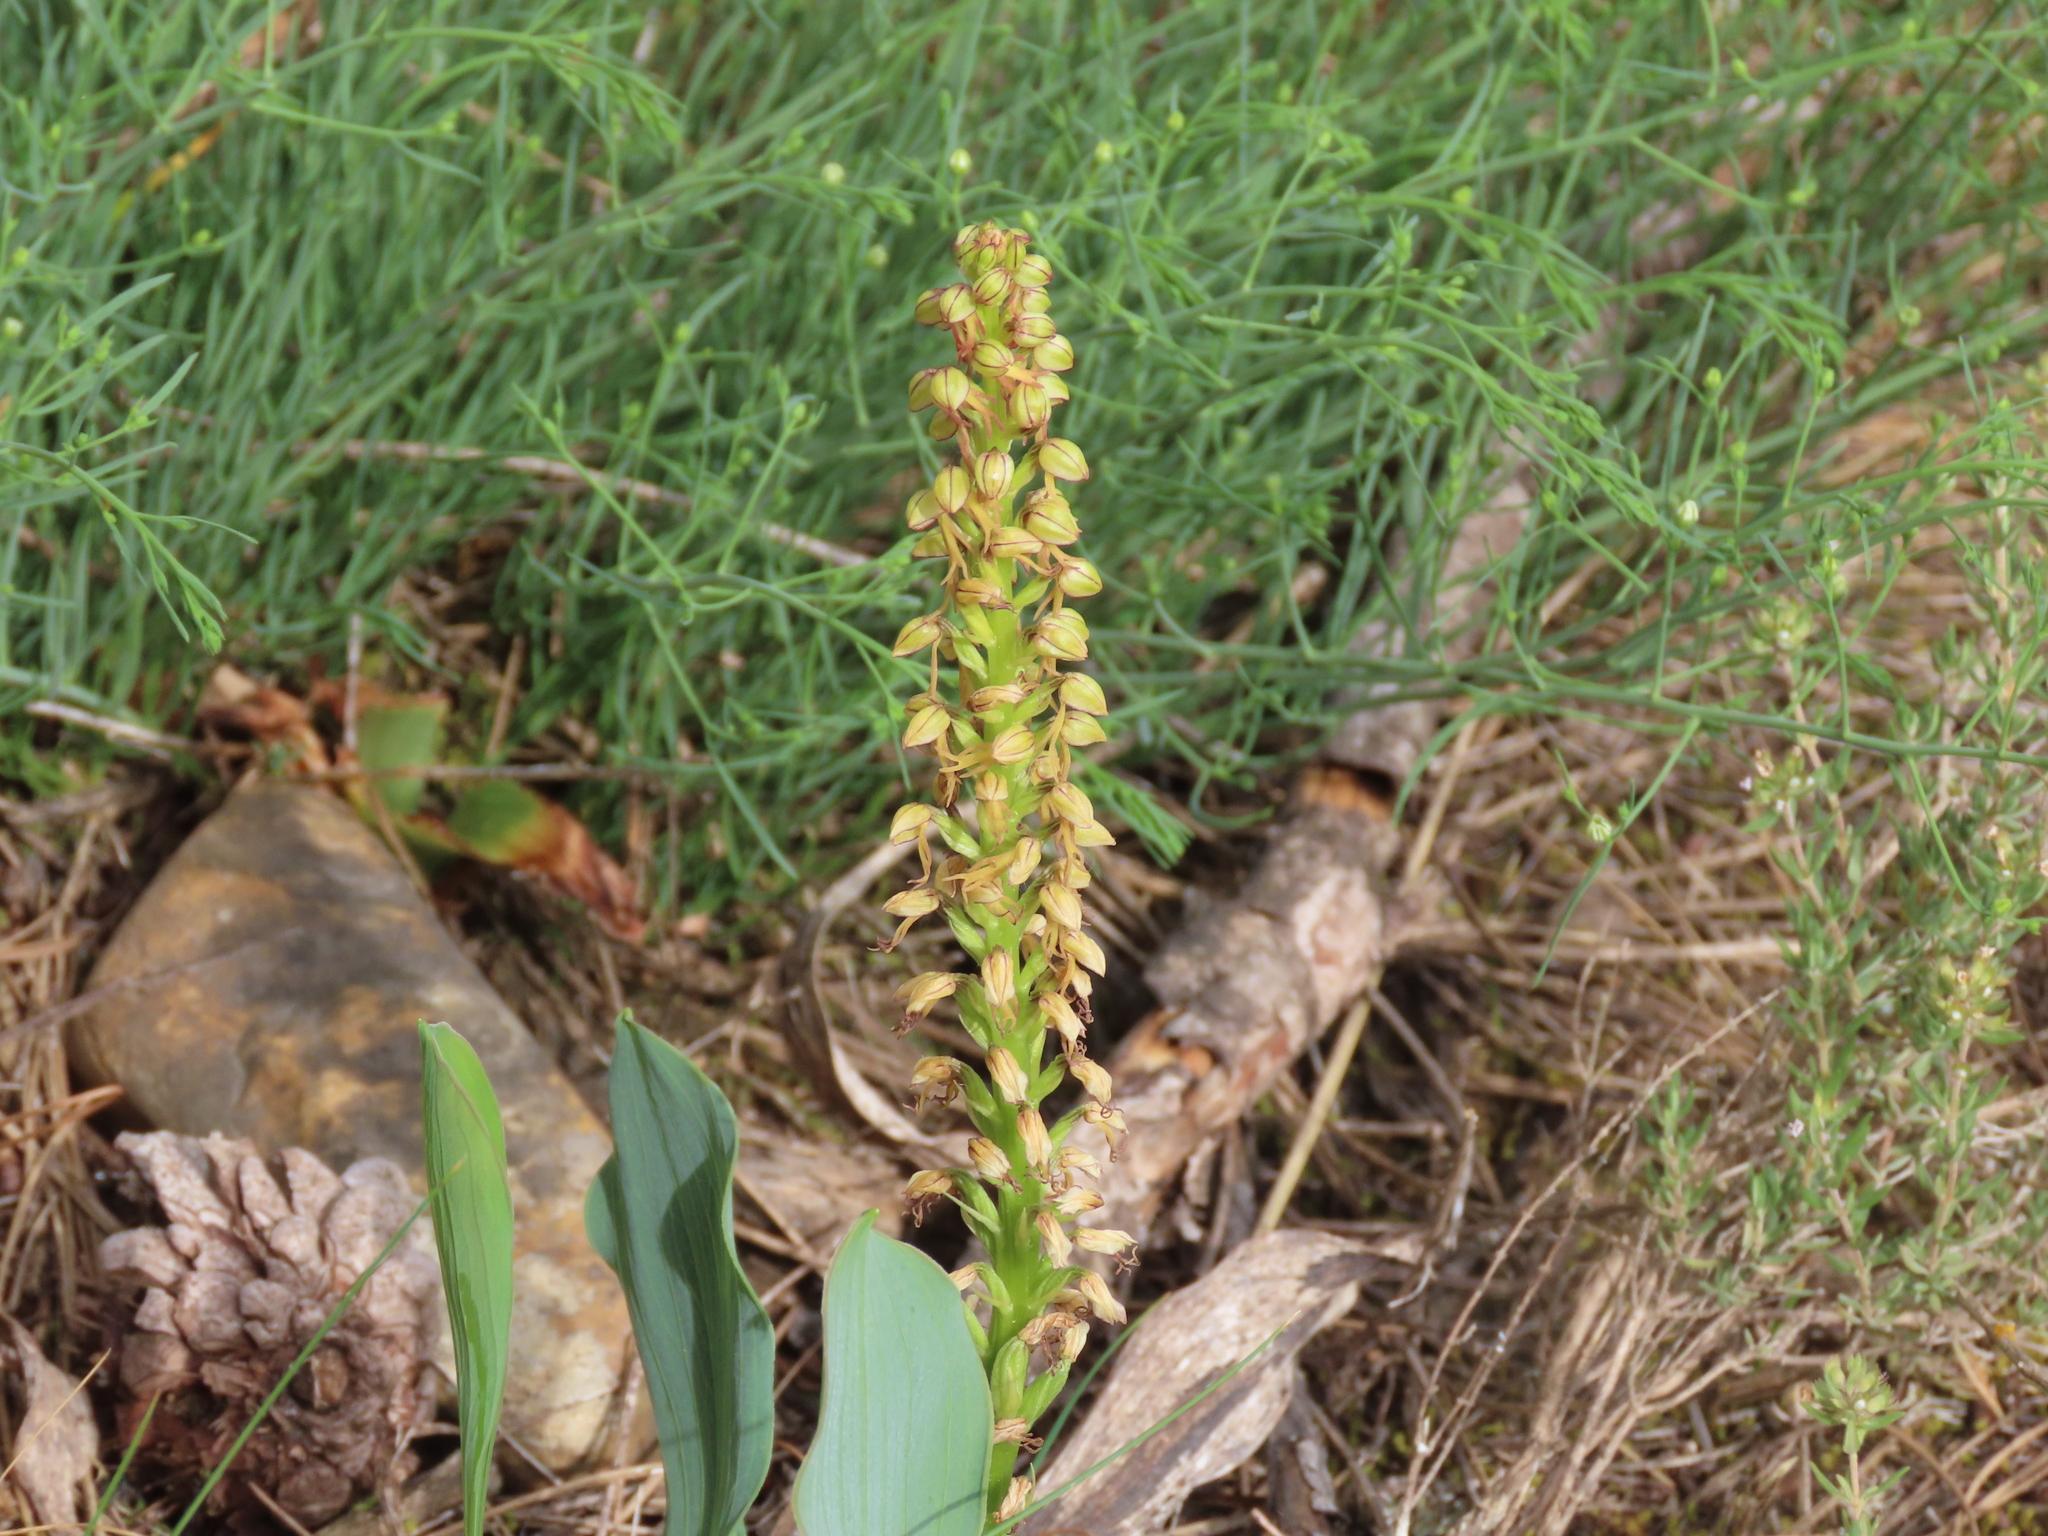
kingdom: Plantae
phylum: Tracheophyta
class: Liliopsida
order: Asparagales
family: Orchidaceae
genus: Orchis
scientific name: Orchis anthropophora
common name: Man orchid
